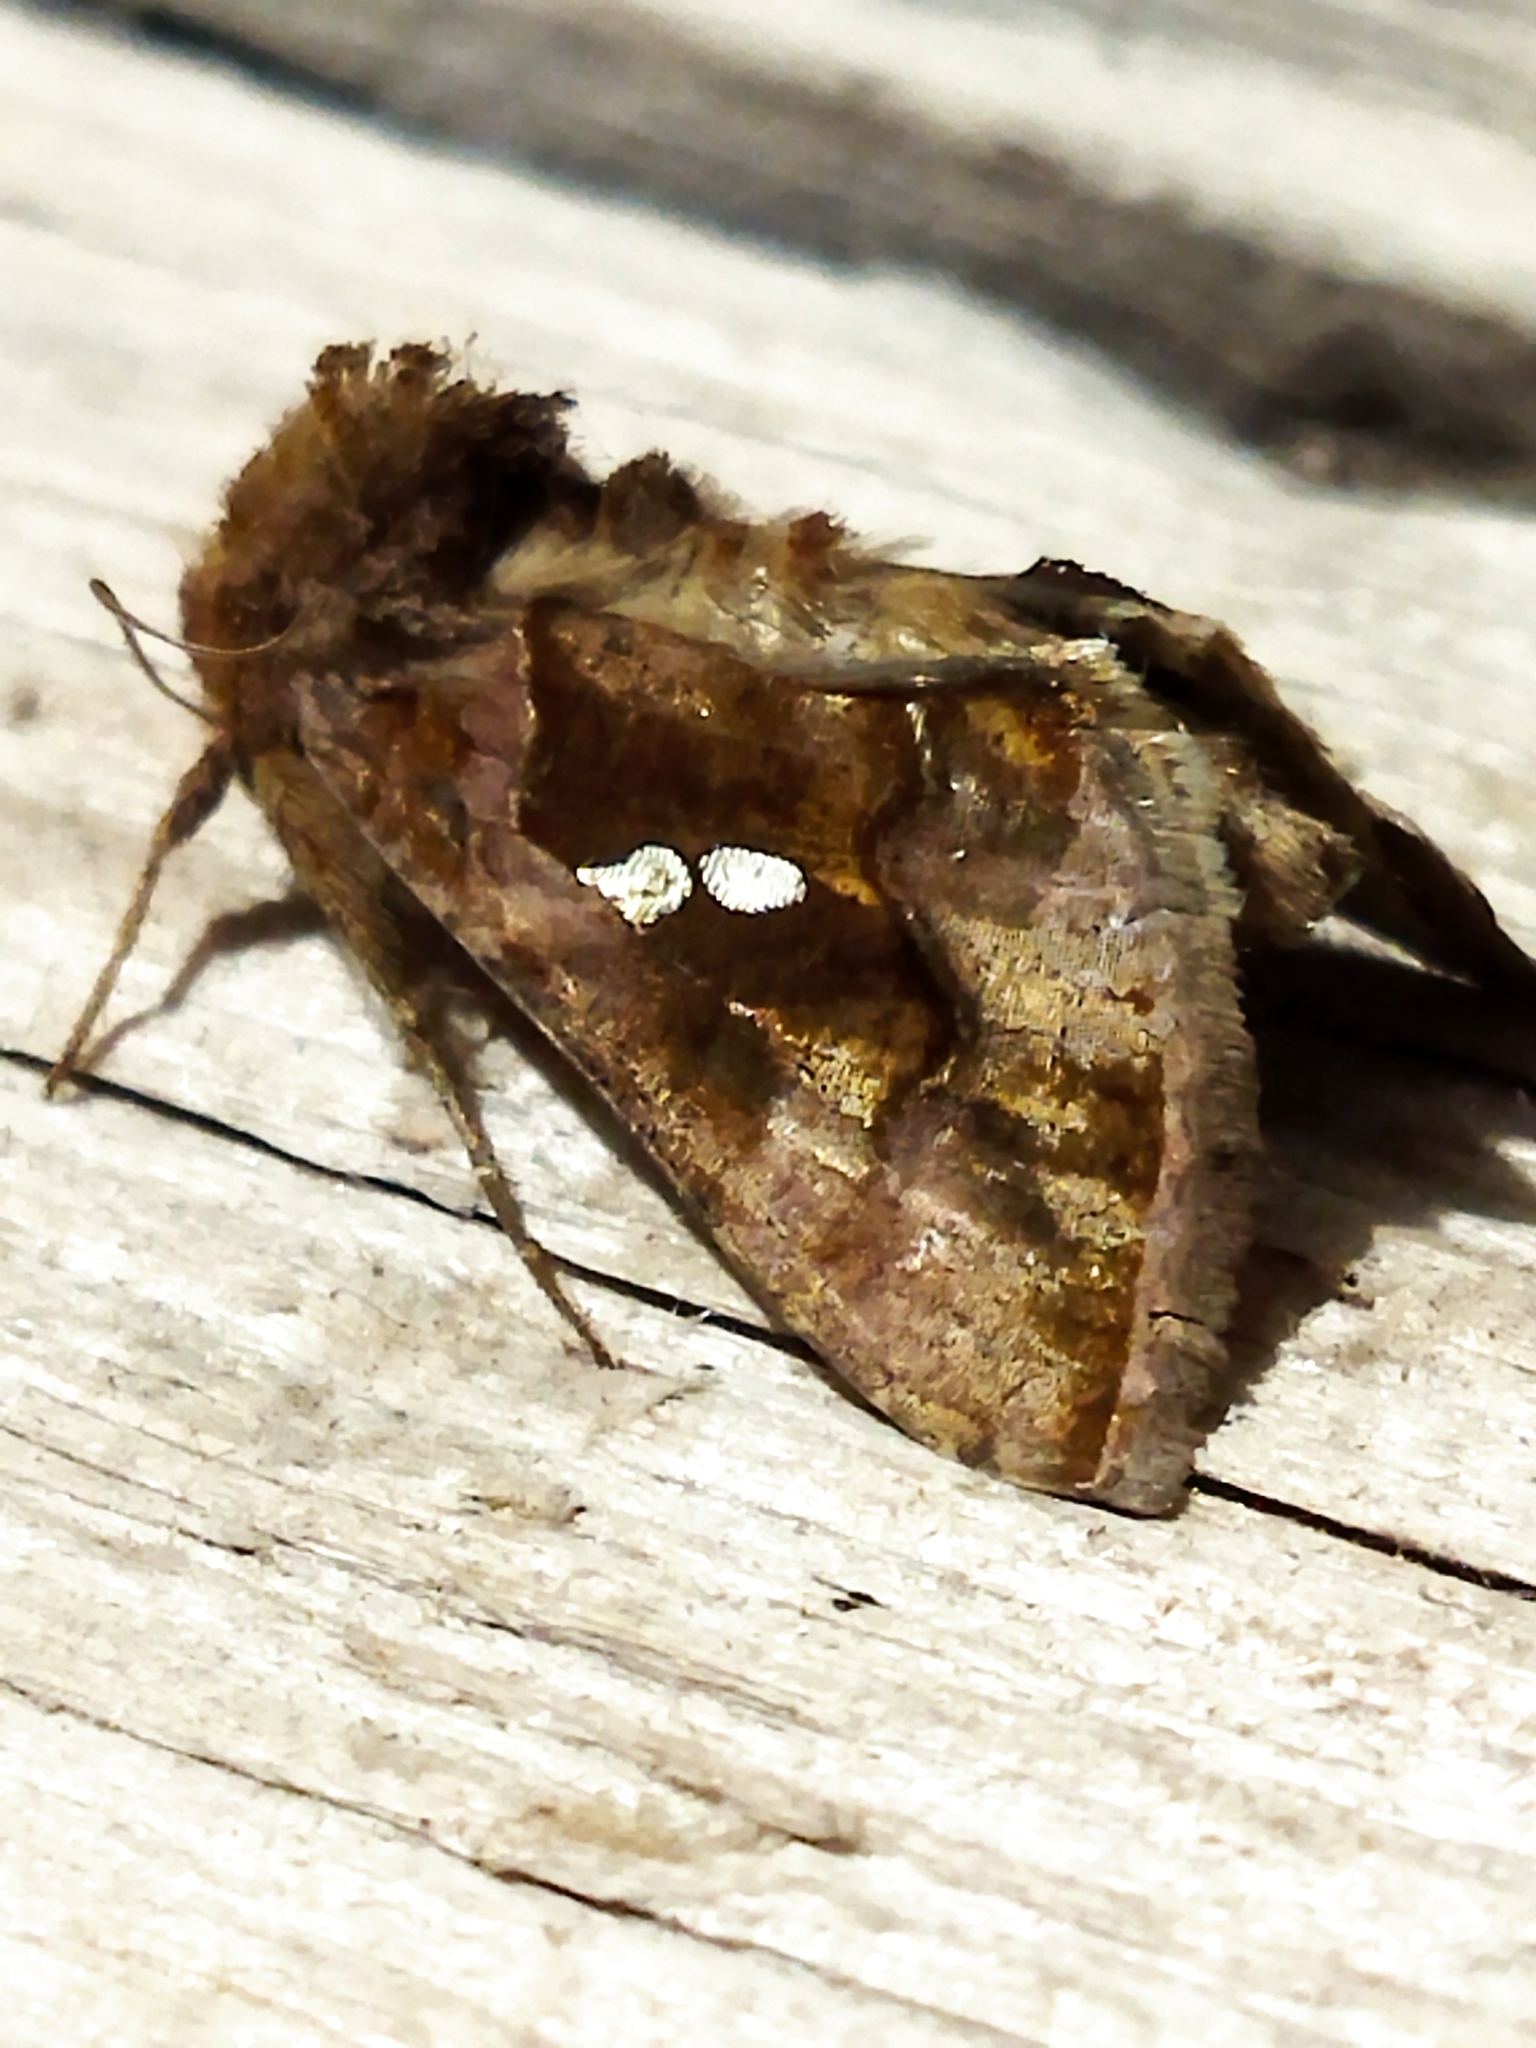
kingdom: Animalia
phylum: Arthropoda
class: Insecta
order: Lepidoptera
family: Noctuidae
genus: Chrysodeixis
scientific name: Chrysodeixis chalcites
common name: Golden twin-spot
